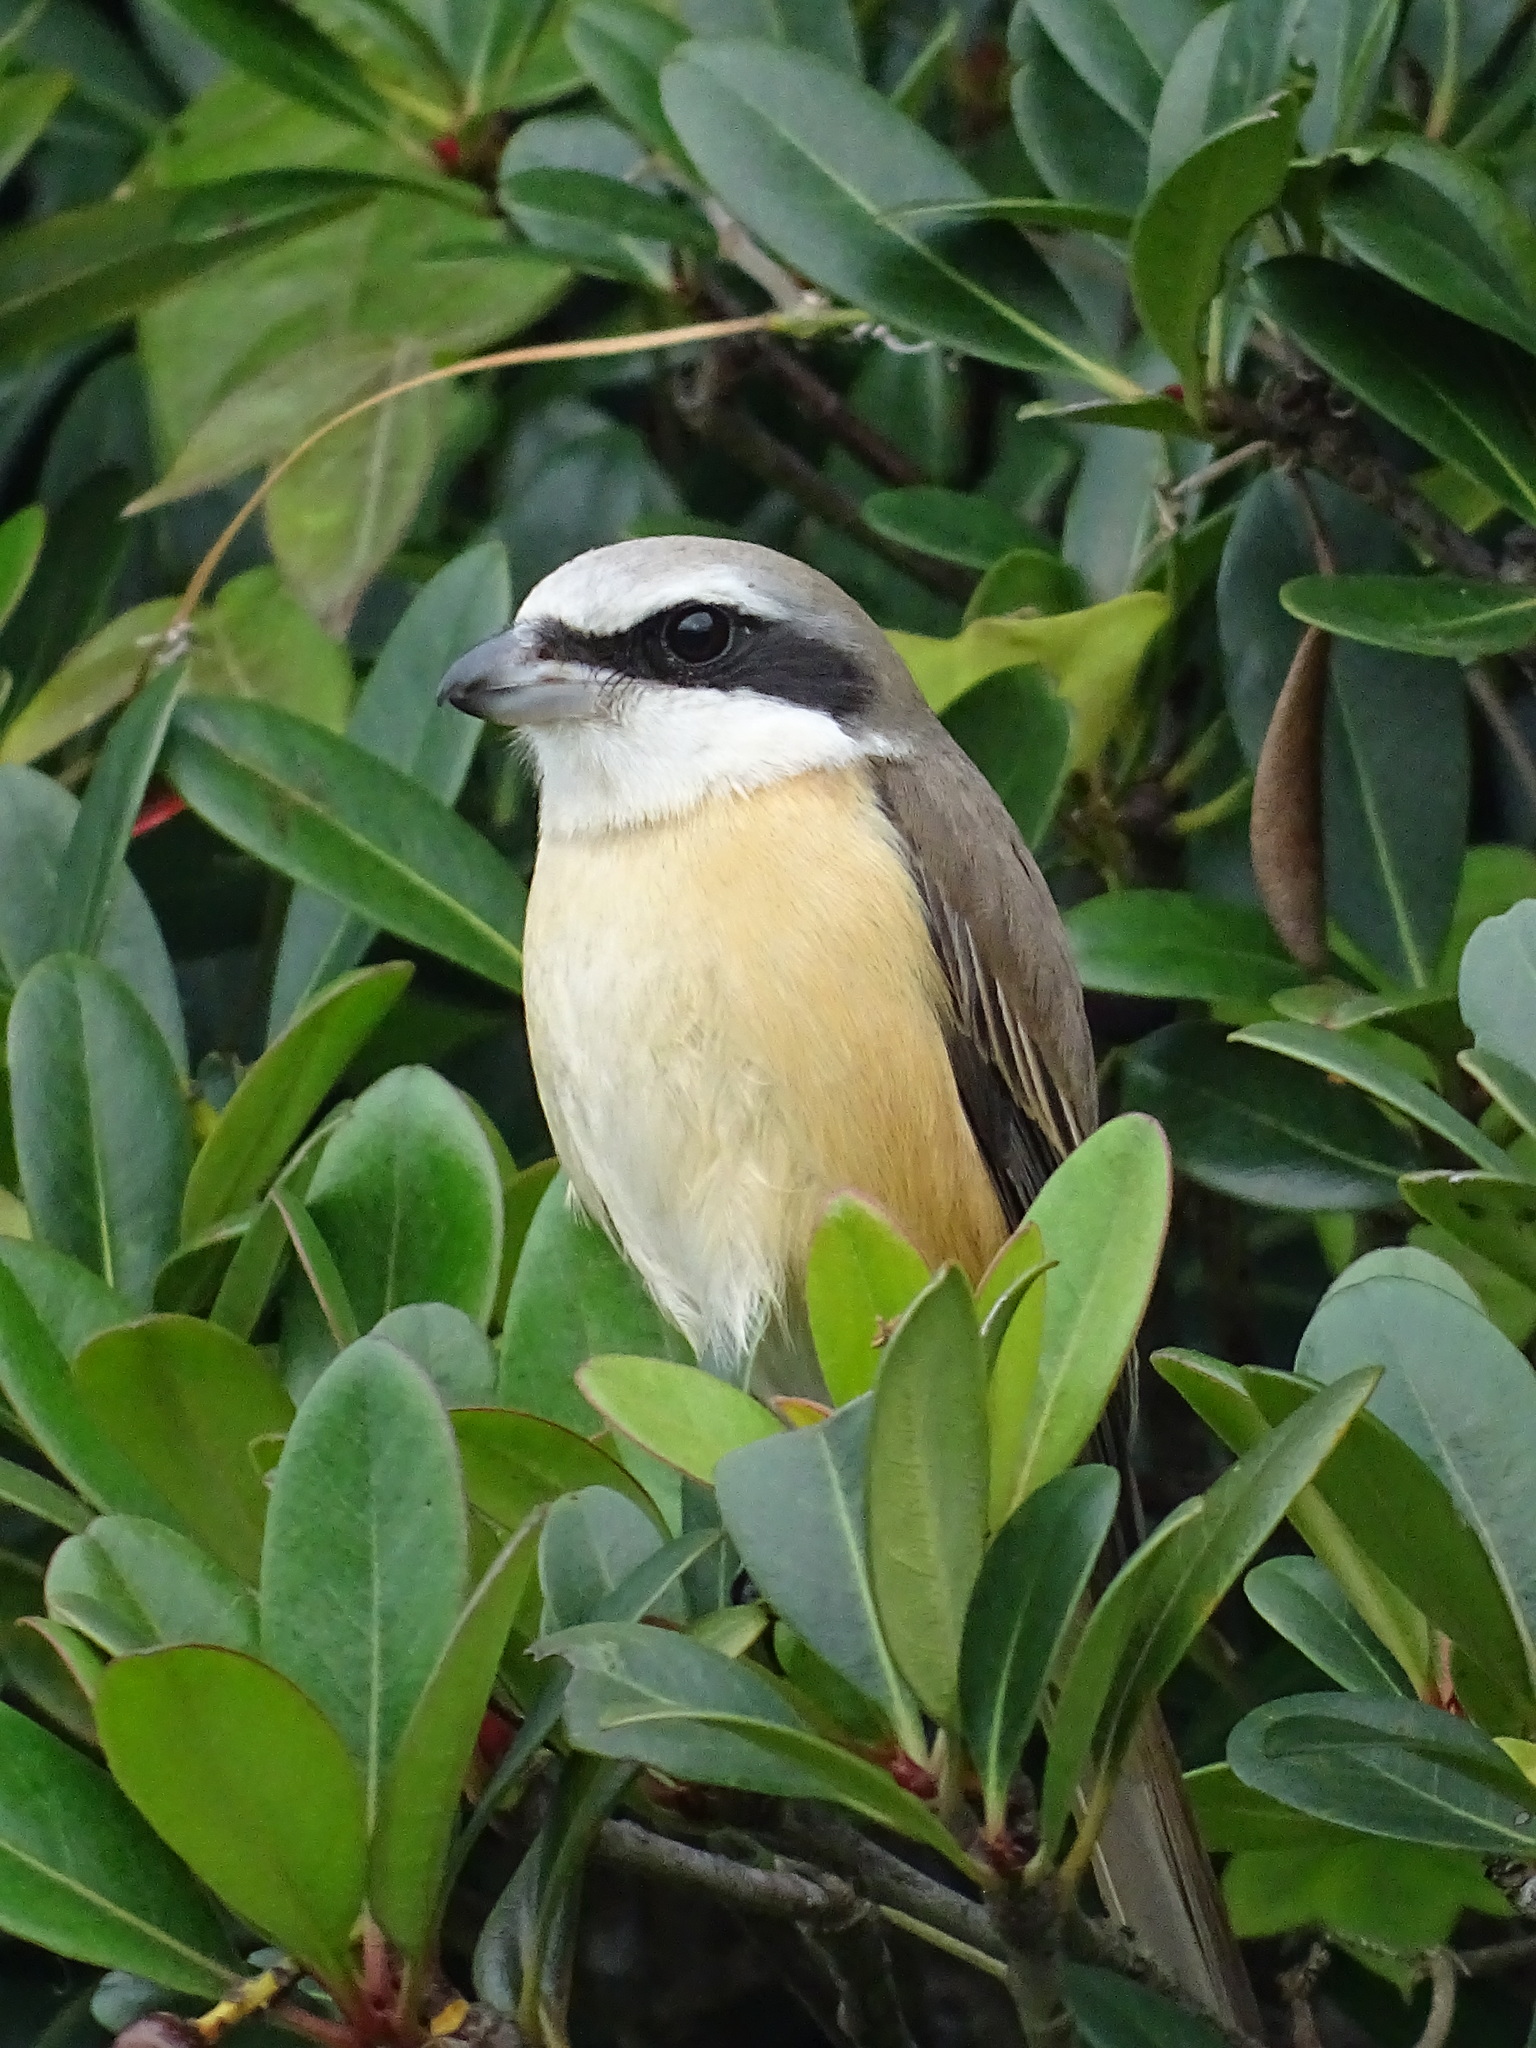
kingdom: Animalia
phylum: Chordata
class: Aves
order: Passeriformes
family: Laniidae
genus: Lanius
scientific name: Lanius cristatus
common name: Brown shrike
